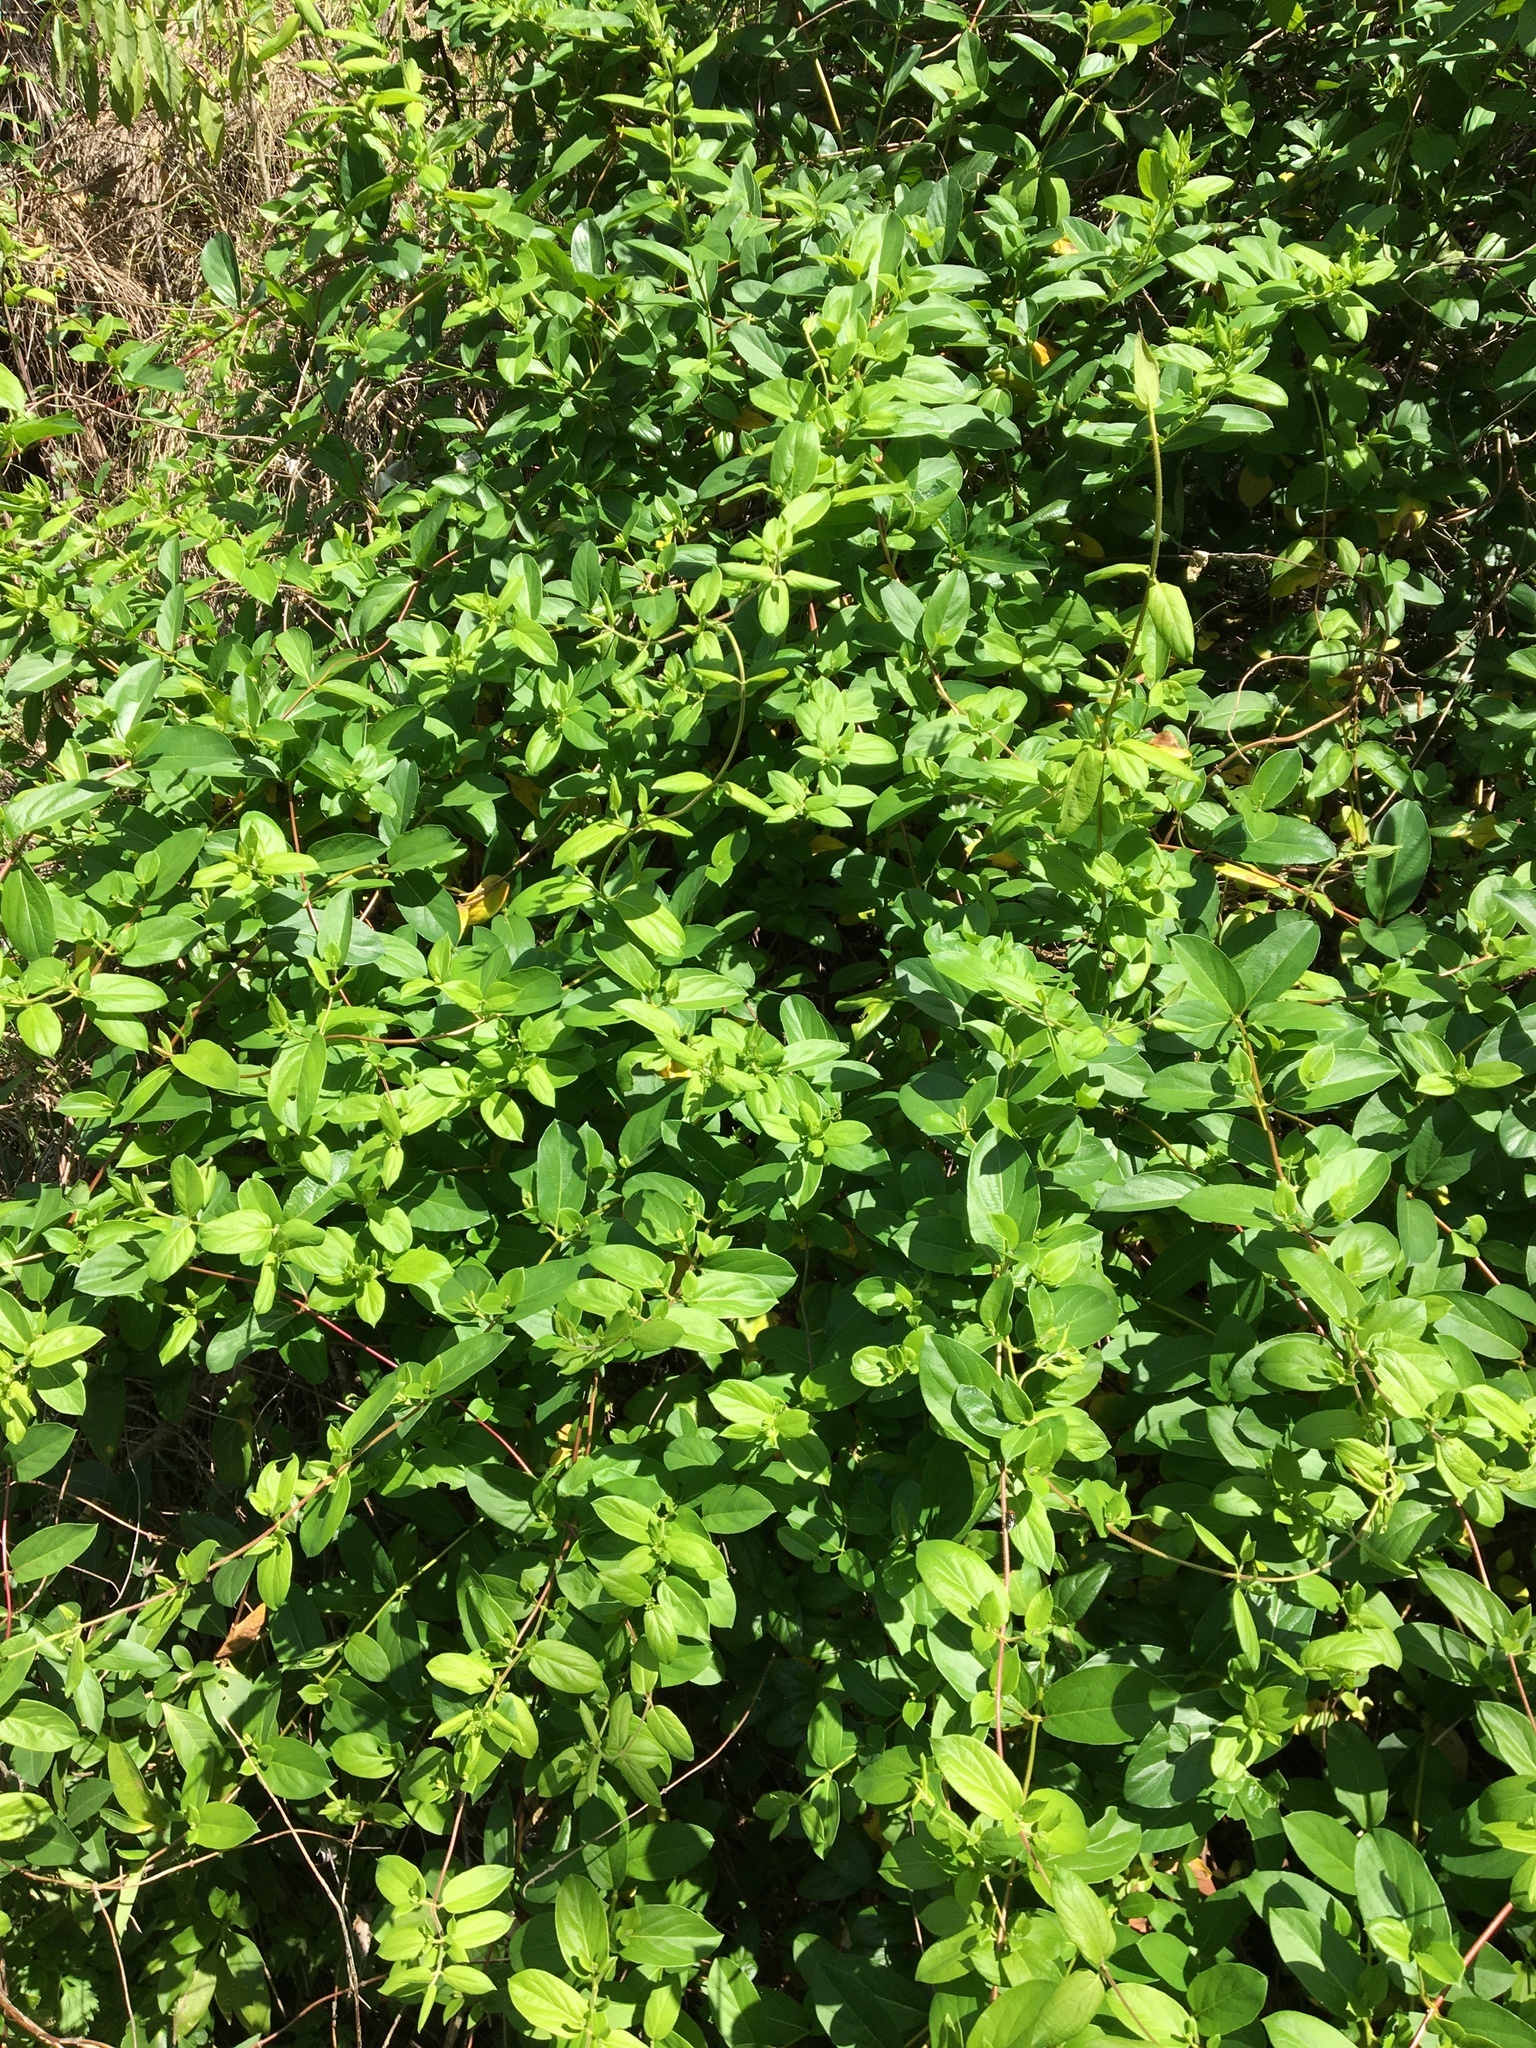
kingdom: Plantae
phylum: Tracheophyta
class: Magnoliopsida
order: Dipsacales
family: Caprifoliaceae
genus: Lonicera
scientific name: Lonicera japonica
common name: Japanese honeysuckle
